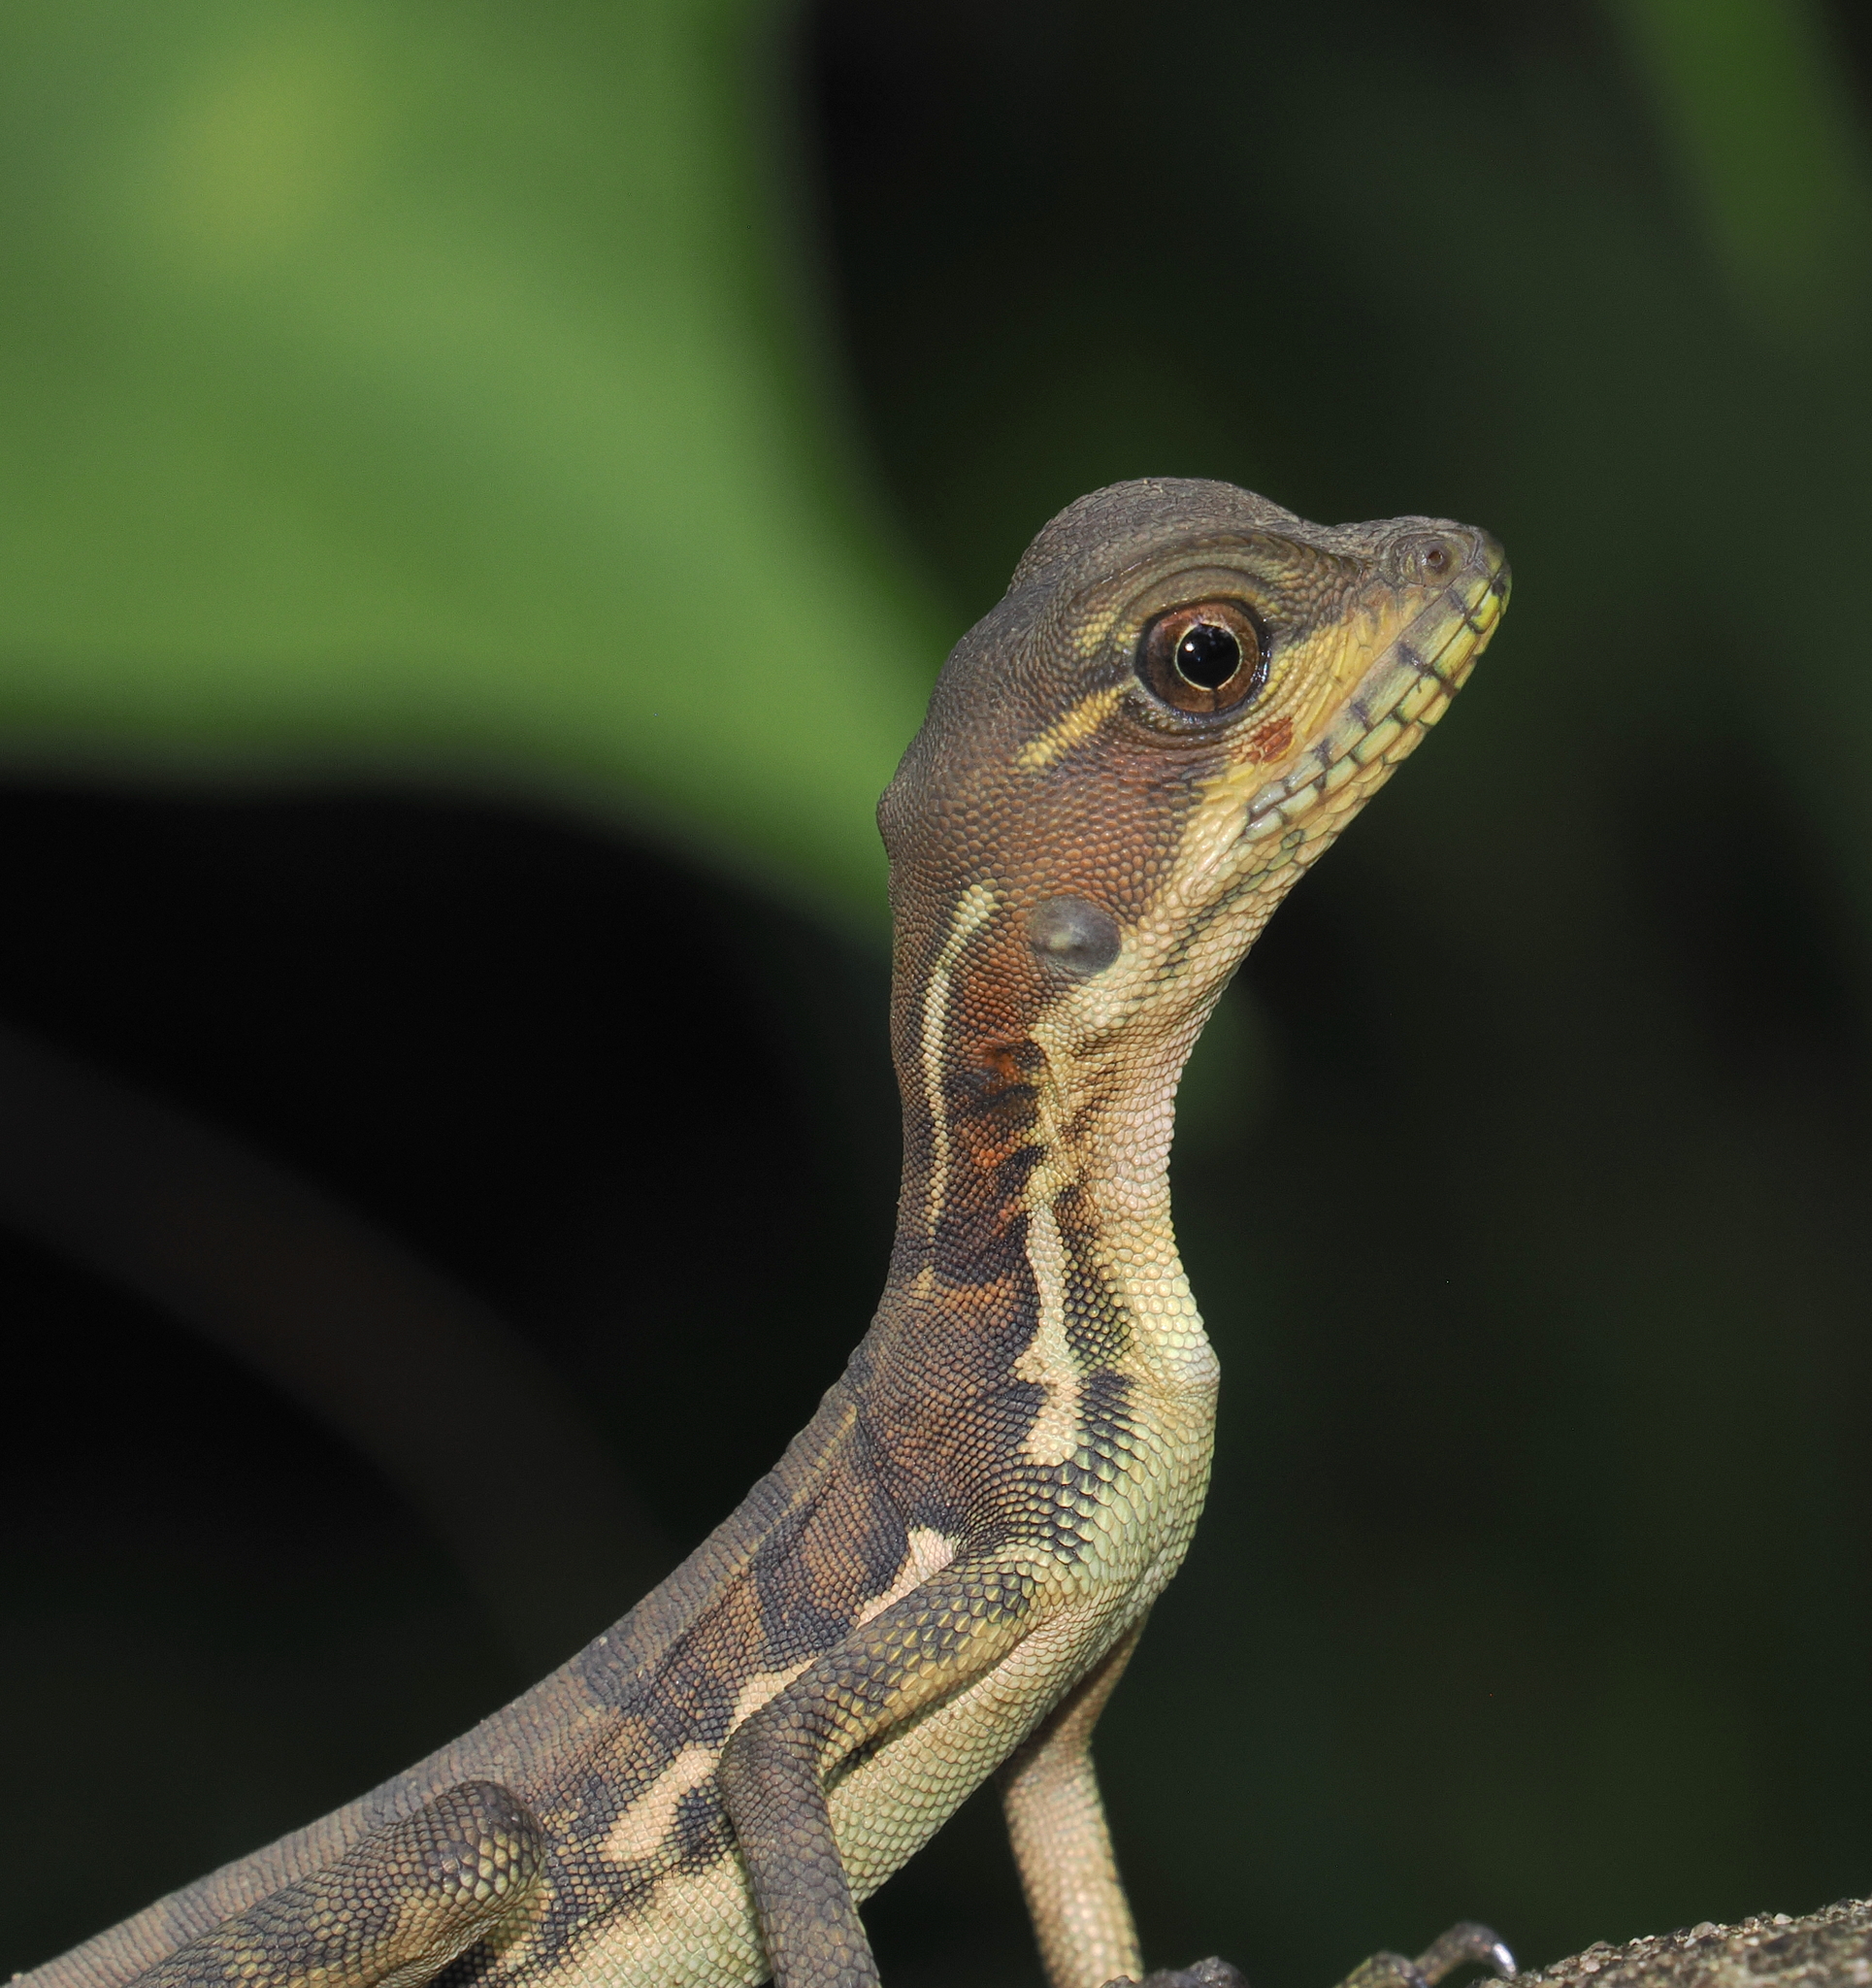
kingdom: Animalia
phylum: Chordata
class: Squamata
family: Corytophanidae
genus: Basiliscus
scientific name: Basiliscus galeritus
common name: Western basilisk
